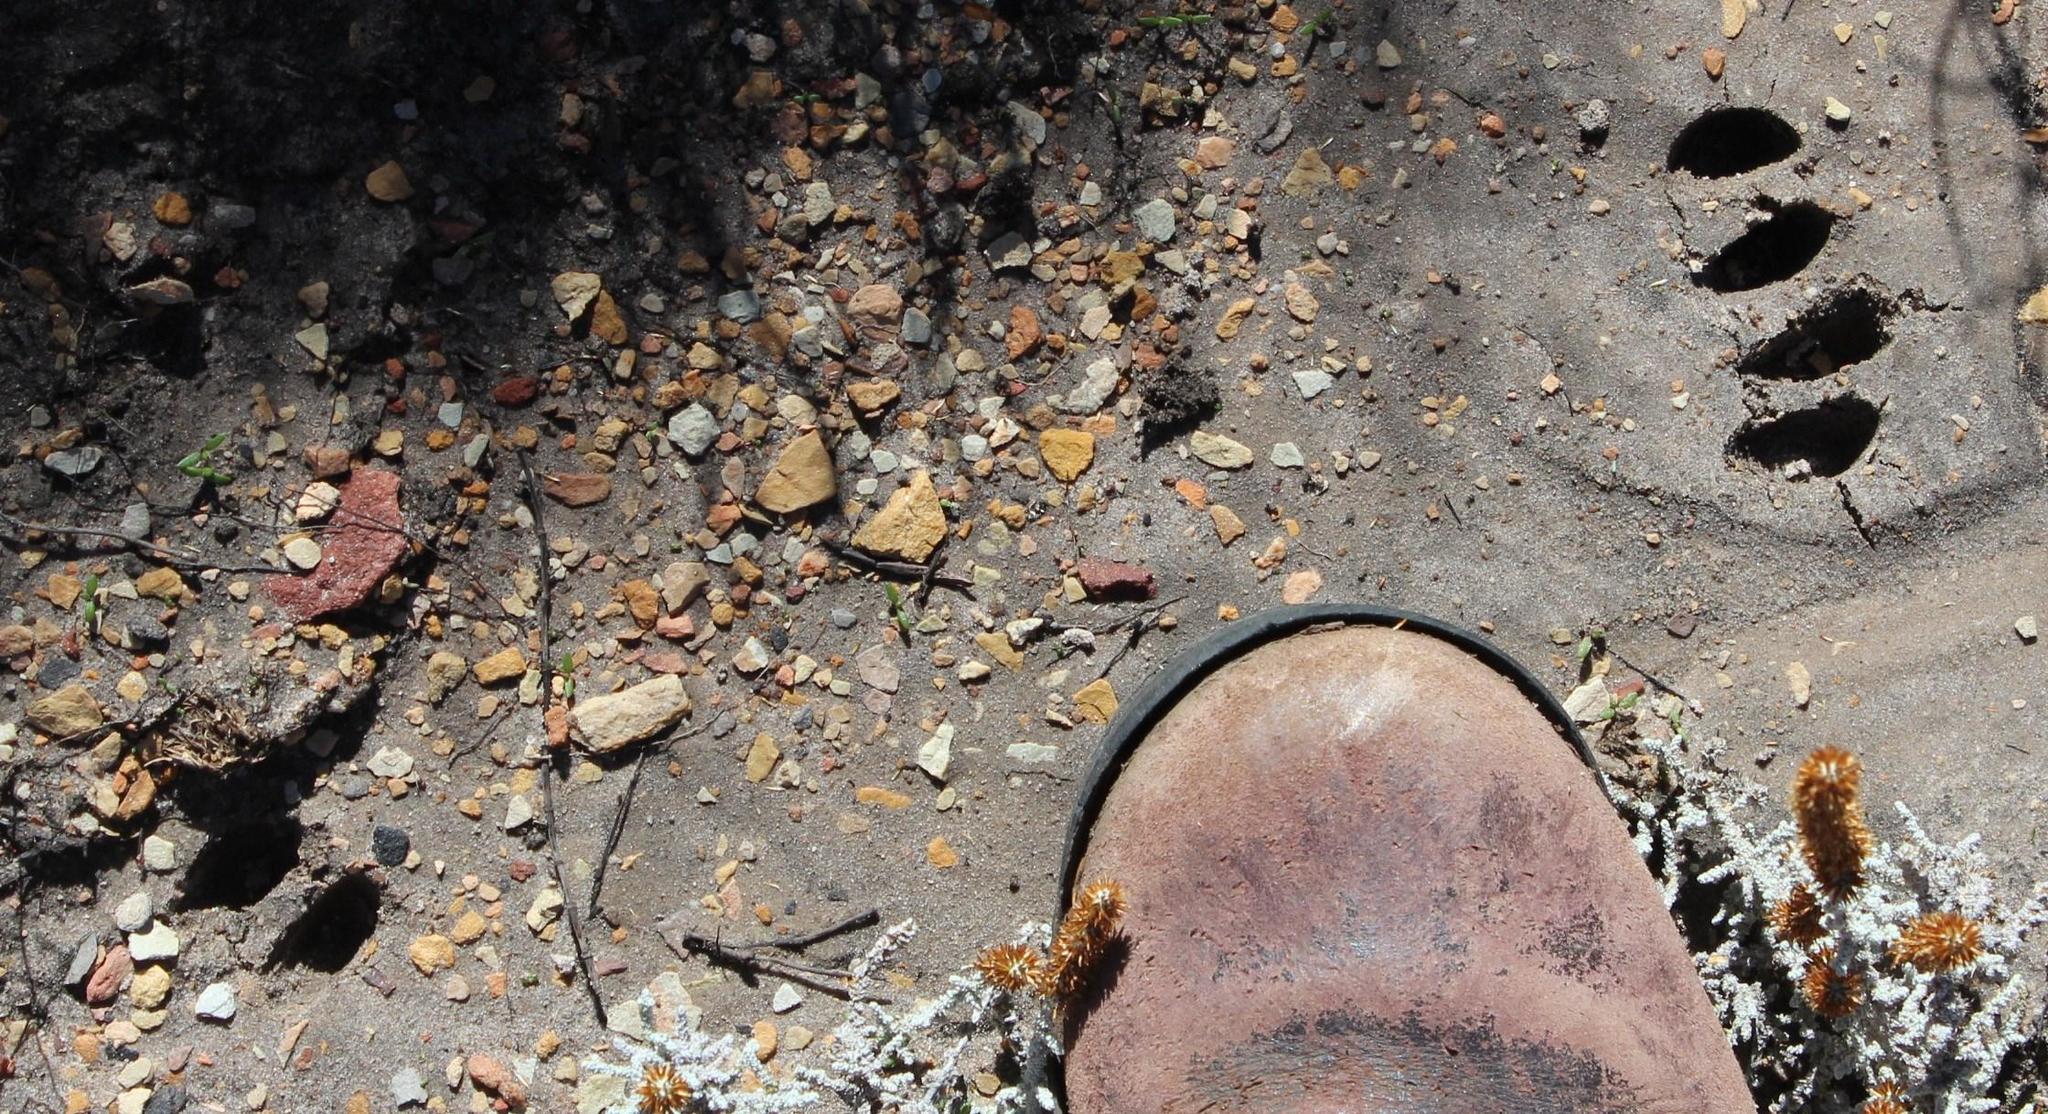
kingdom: Animalia
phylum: Chordata
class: Mammalia
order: Artiodactyla
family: Bovidae
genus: Oreotragus
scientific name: Oreotragus oreotragus
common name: Klipspringer
